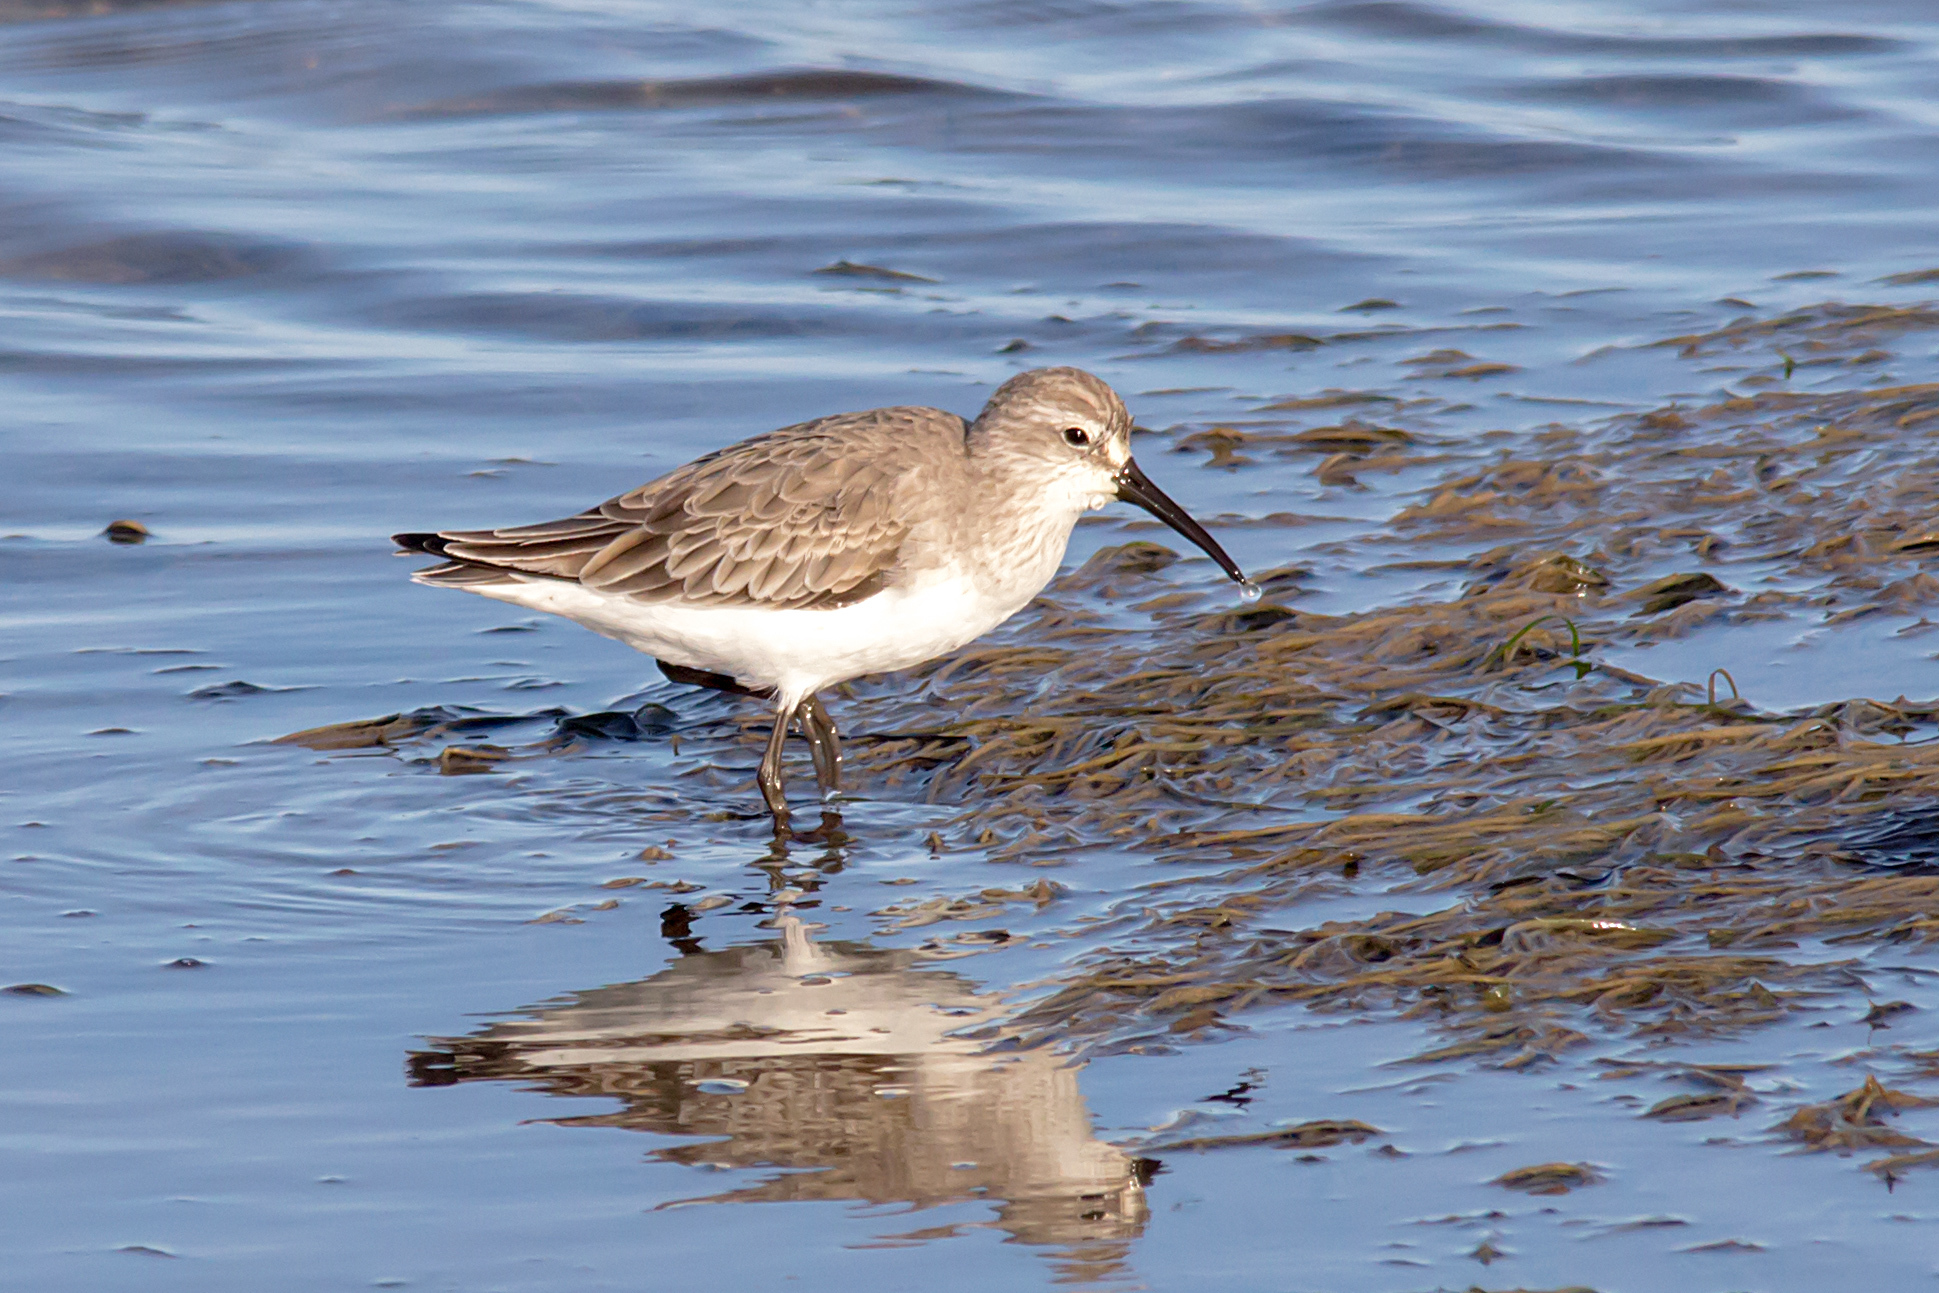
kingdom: Animalia
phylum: Chordata
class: Aves
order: Charadriiformes
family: Scolopacidae
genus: Calidris
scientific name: Calidris ferruginea
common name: Curlew sandpiper
